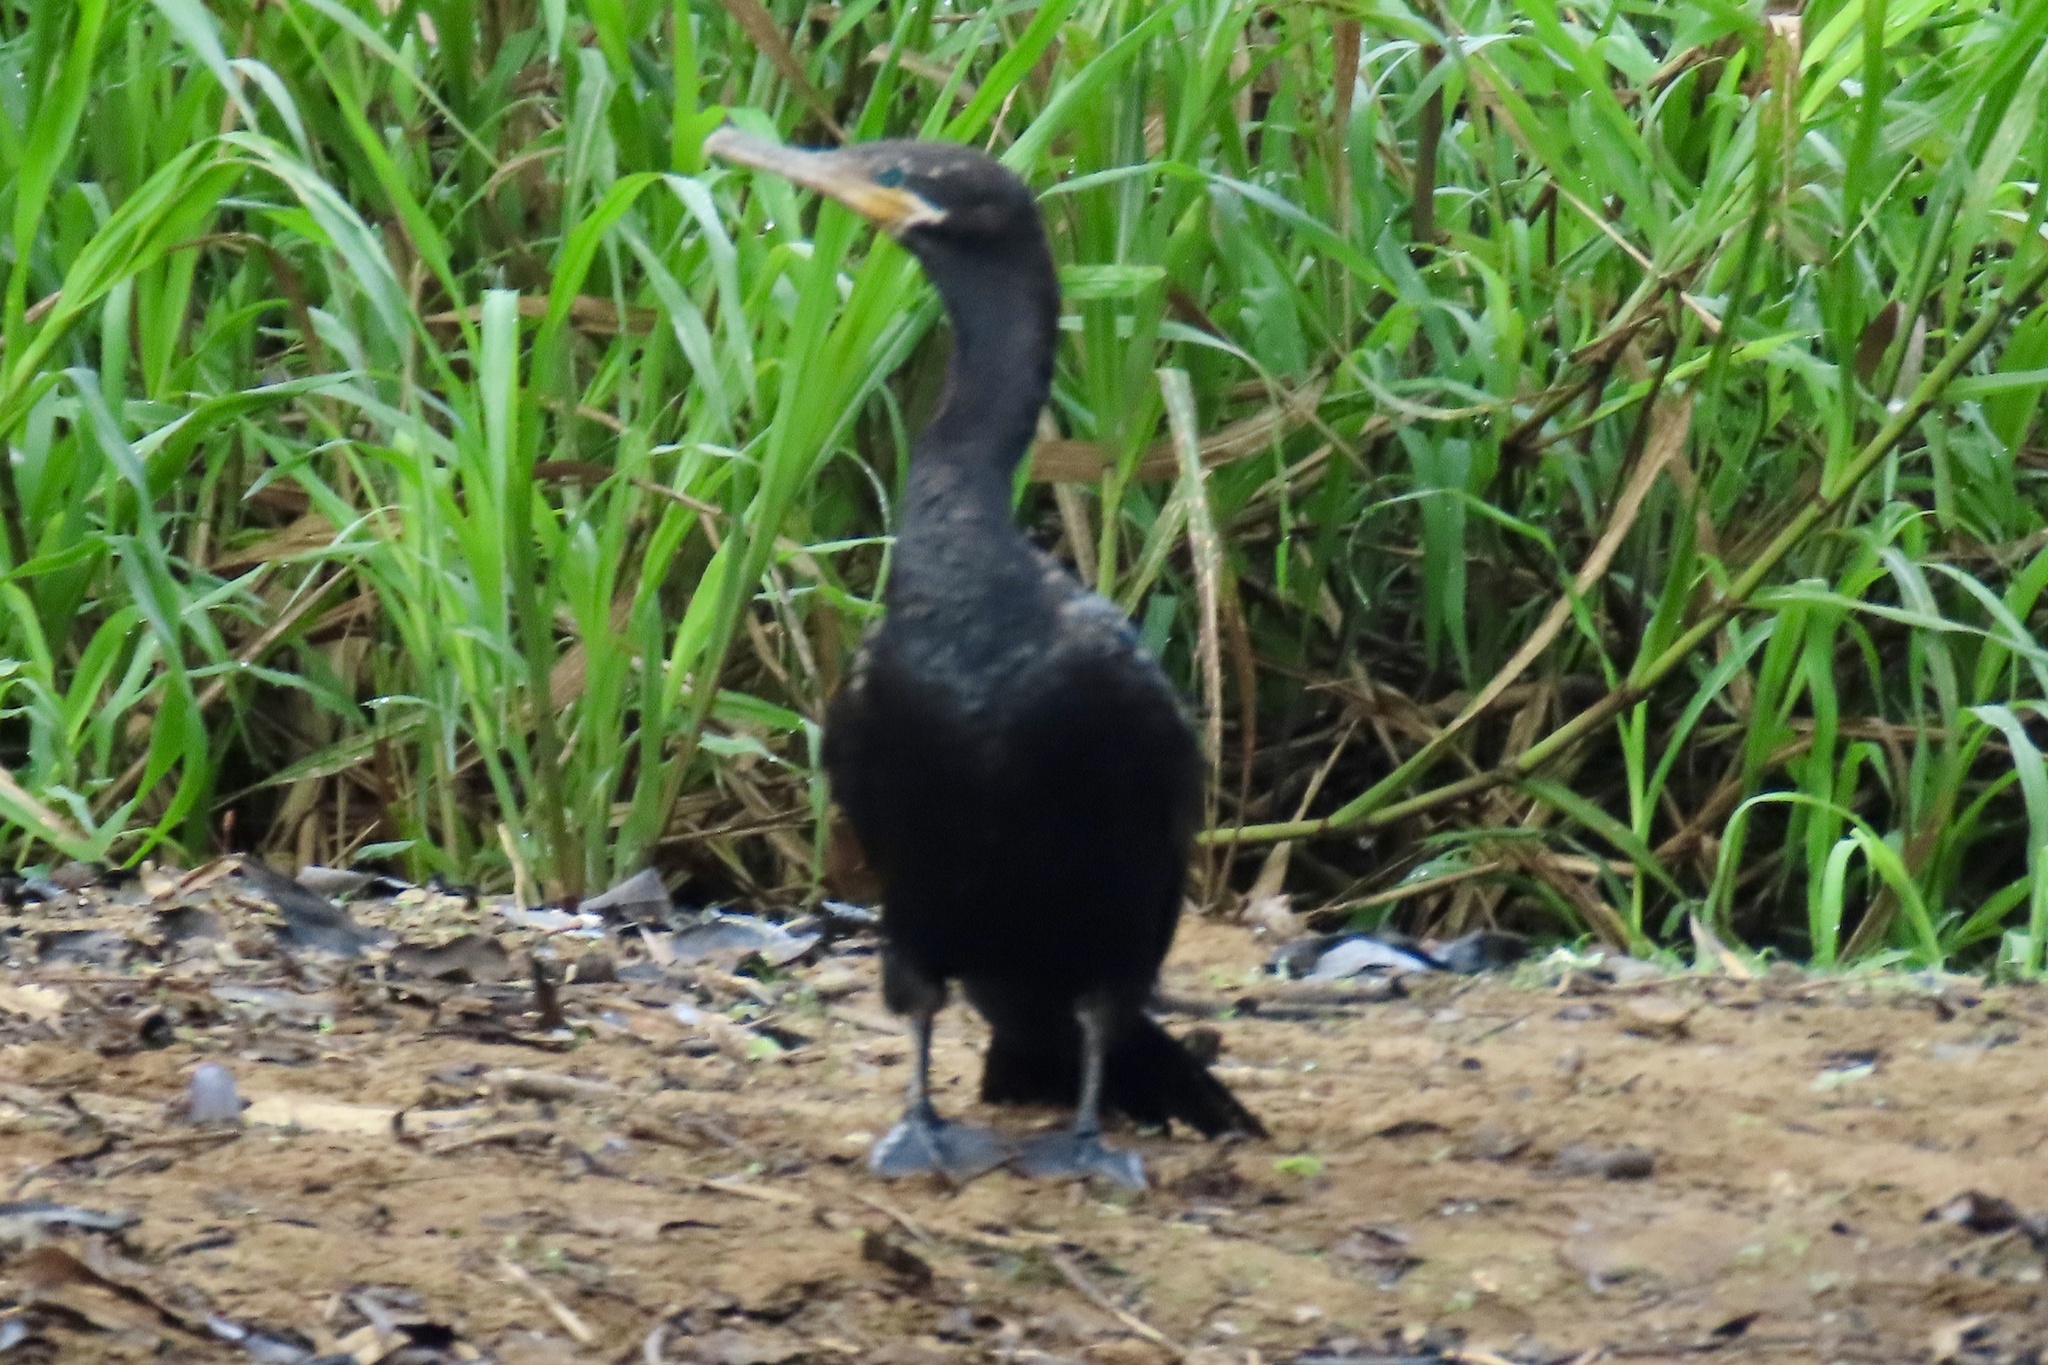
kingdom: Animalia
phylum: Chordata
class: Aves
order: Suliformes
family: Phalacrocoracidae
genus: Phalacrocorax
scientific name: Phalacrocorax brasilianus
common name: Neotropic cormorant
